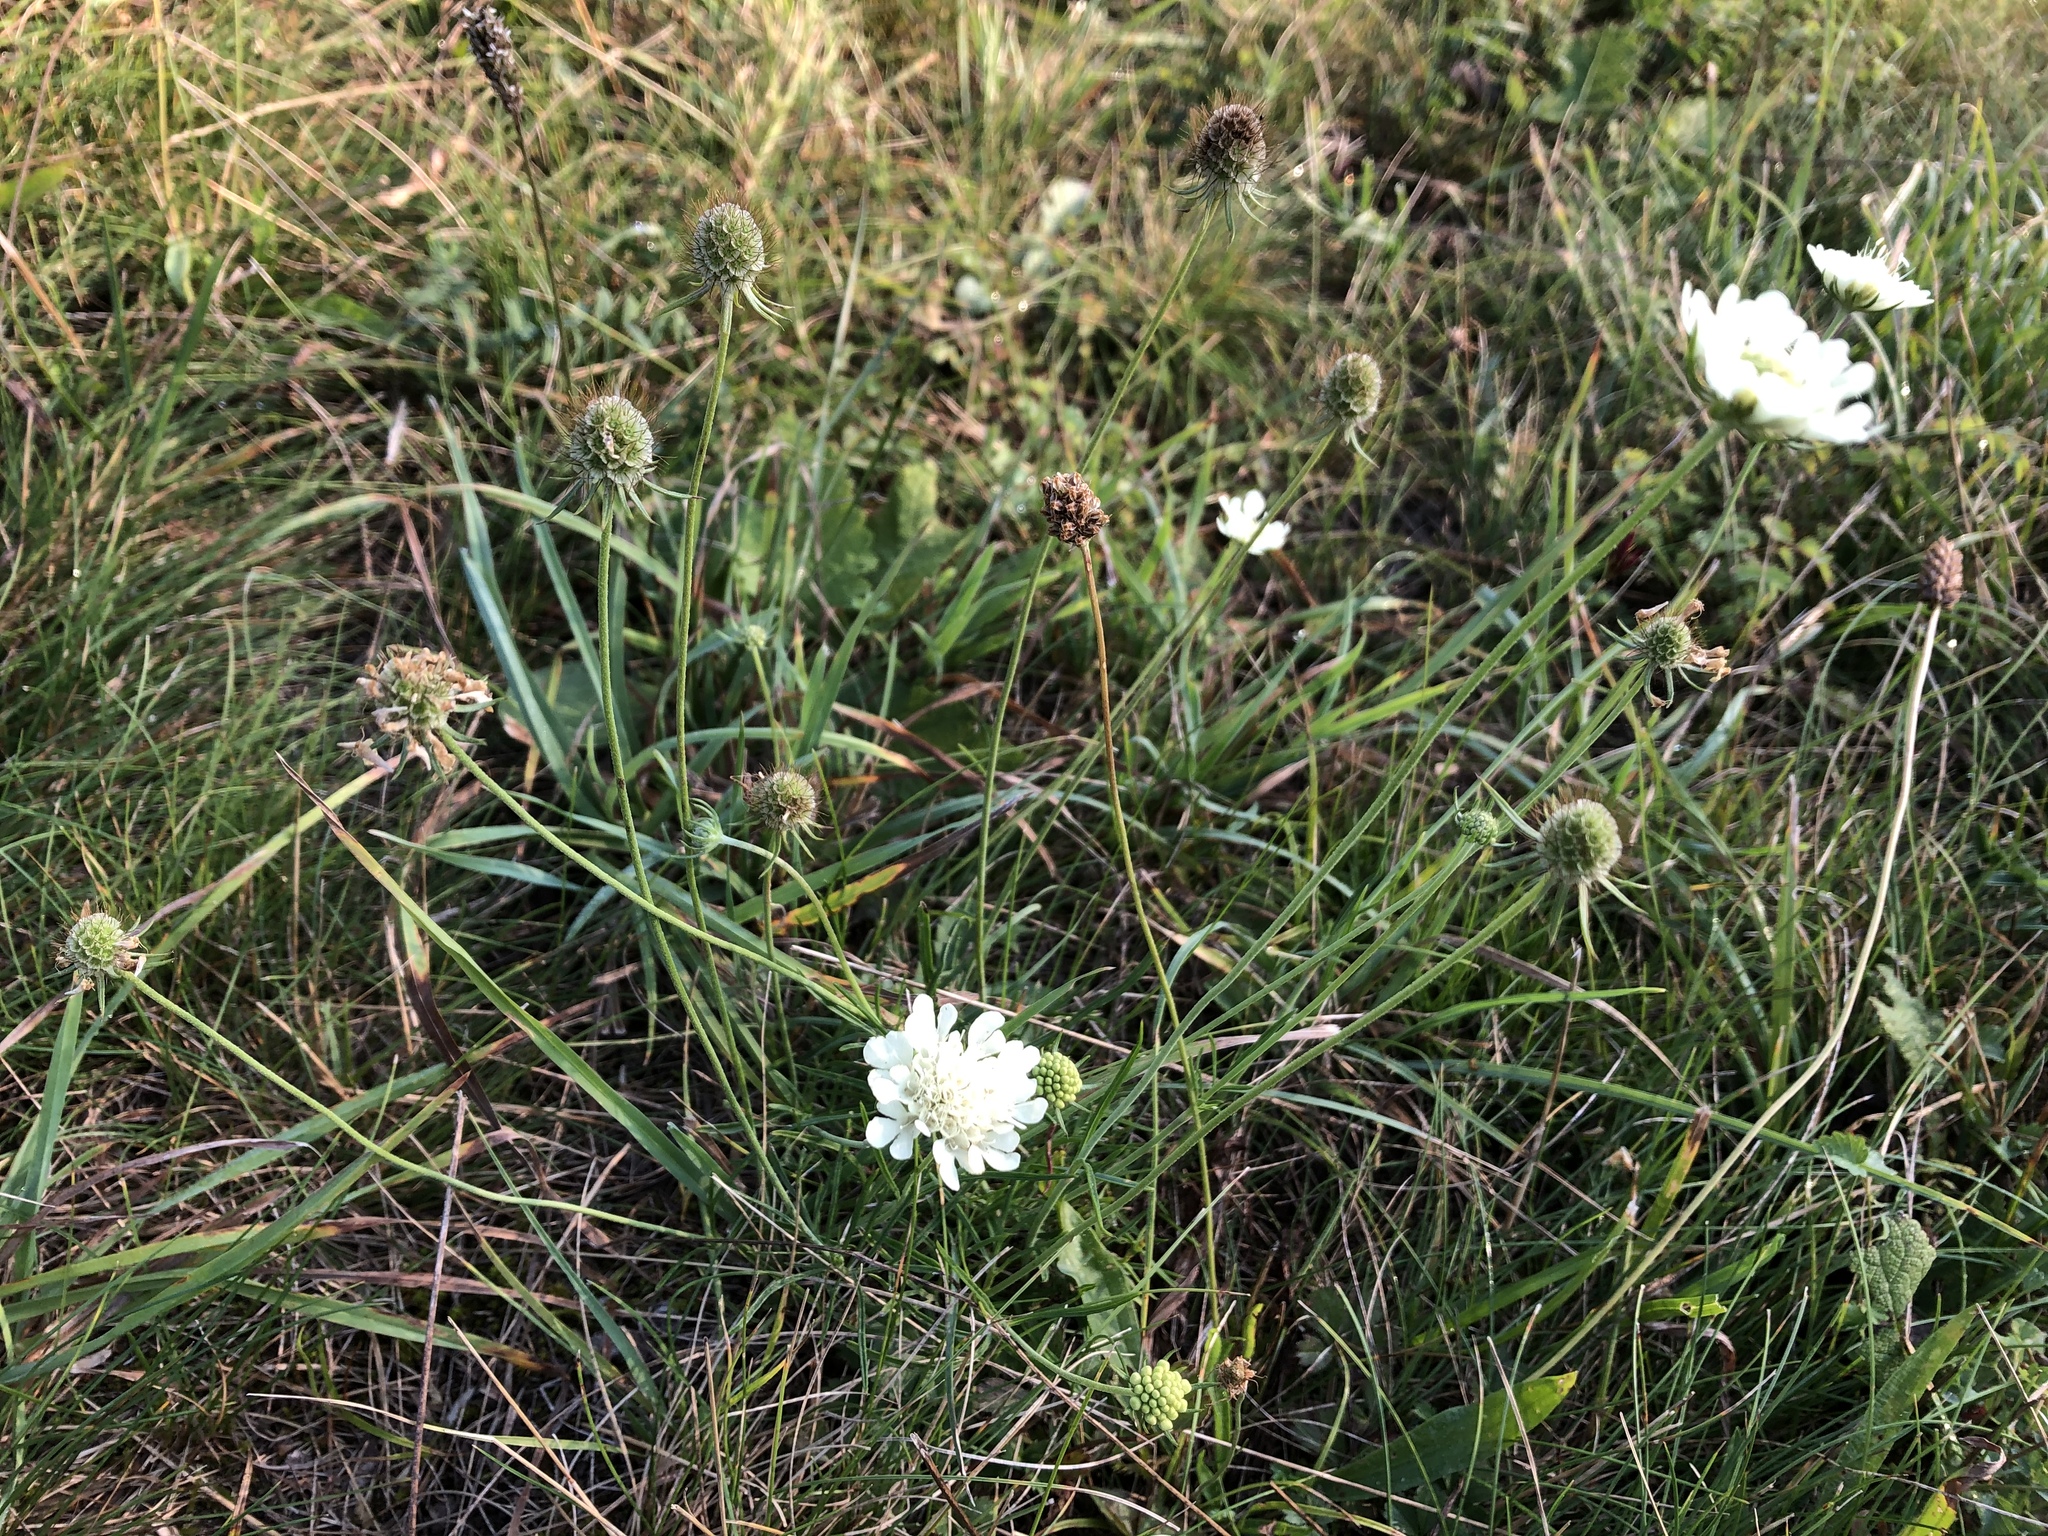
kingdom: Plantae
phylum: Tracheophyta
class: Magnoliopsida
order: Dipsacales
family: Caprifoliaceae
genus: Scabiosa
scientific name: Scabiosa ochroleuca
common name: Cream pincushions
